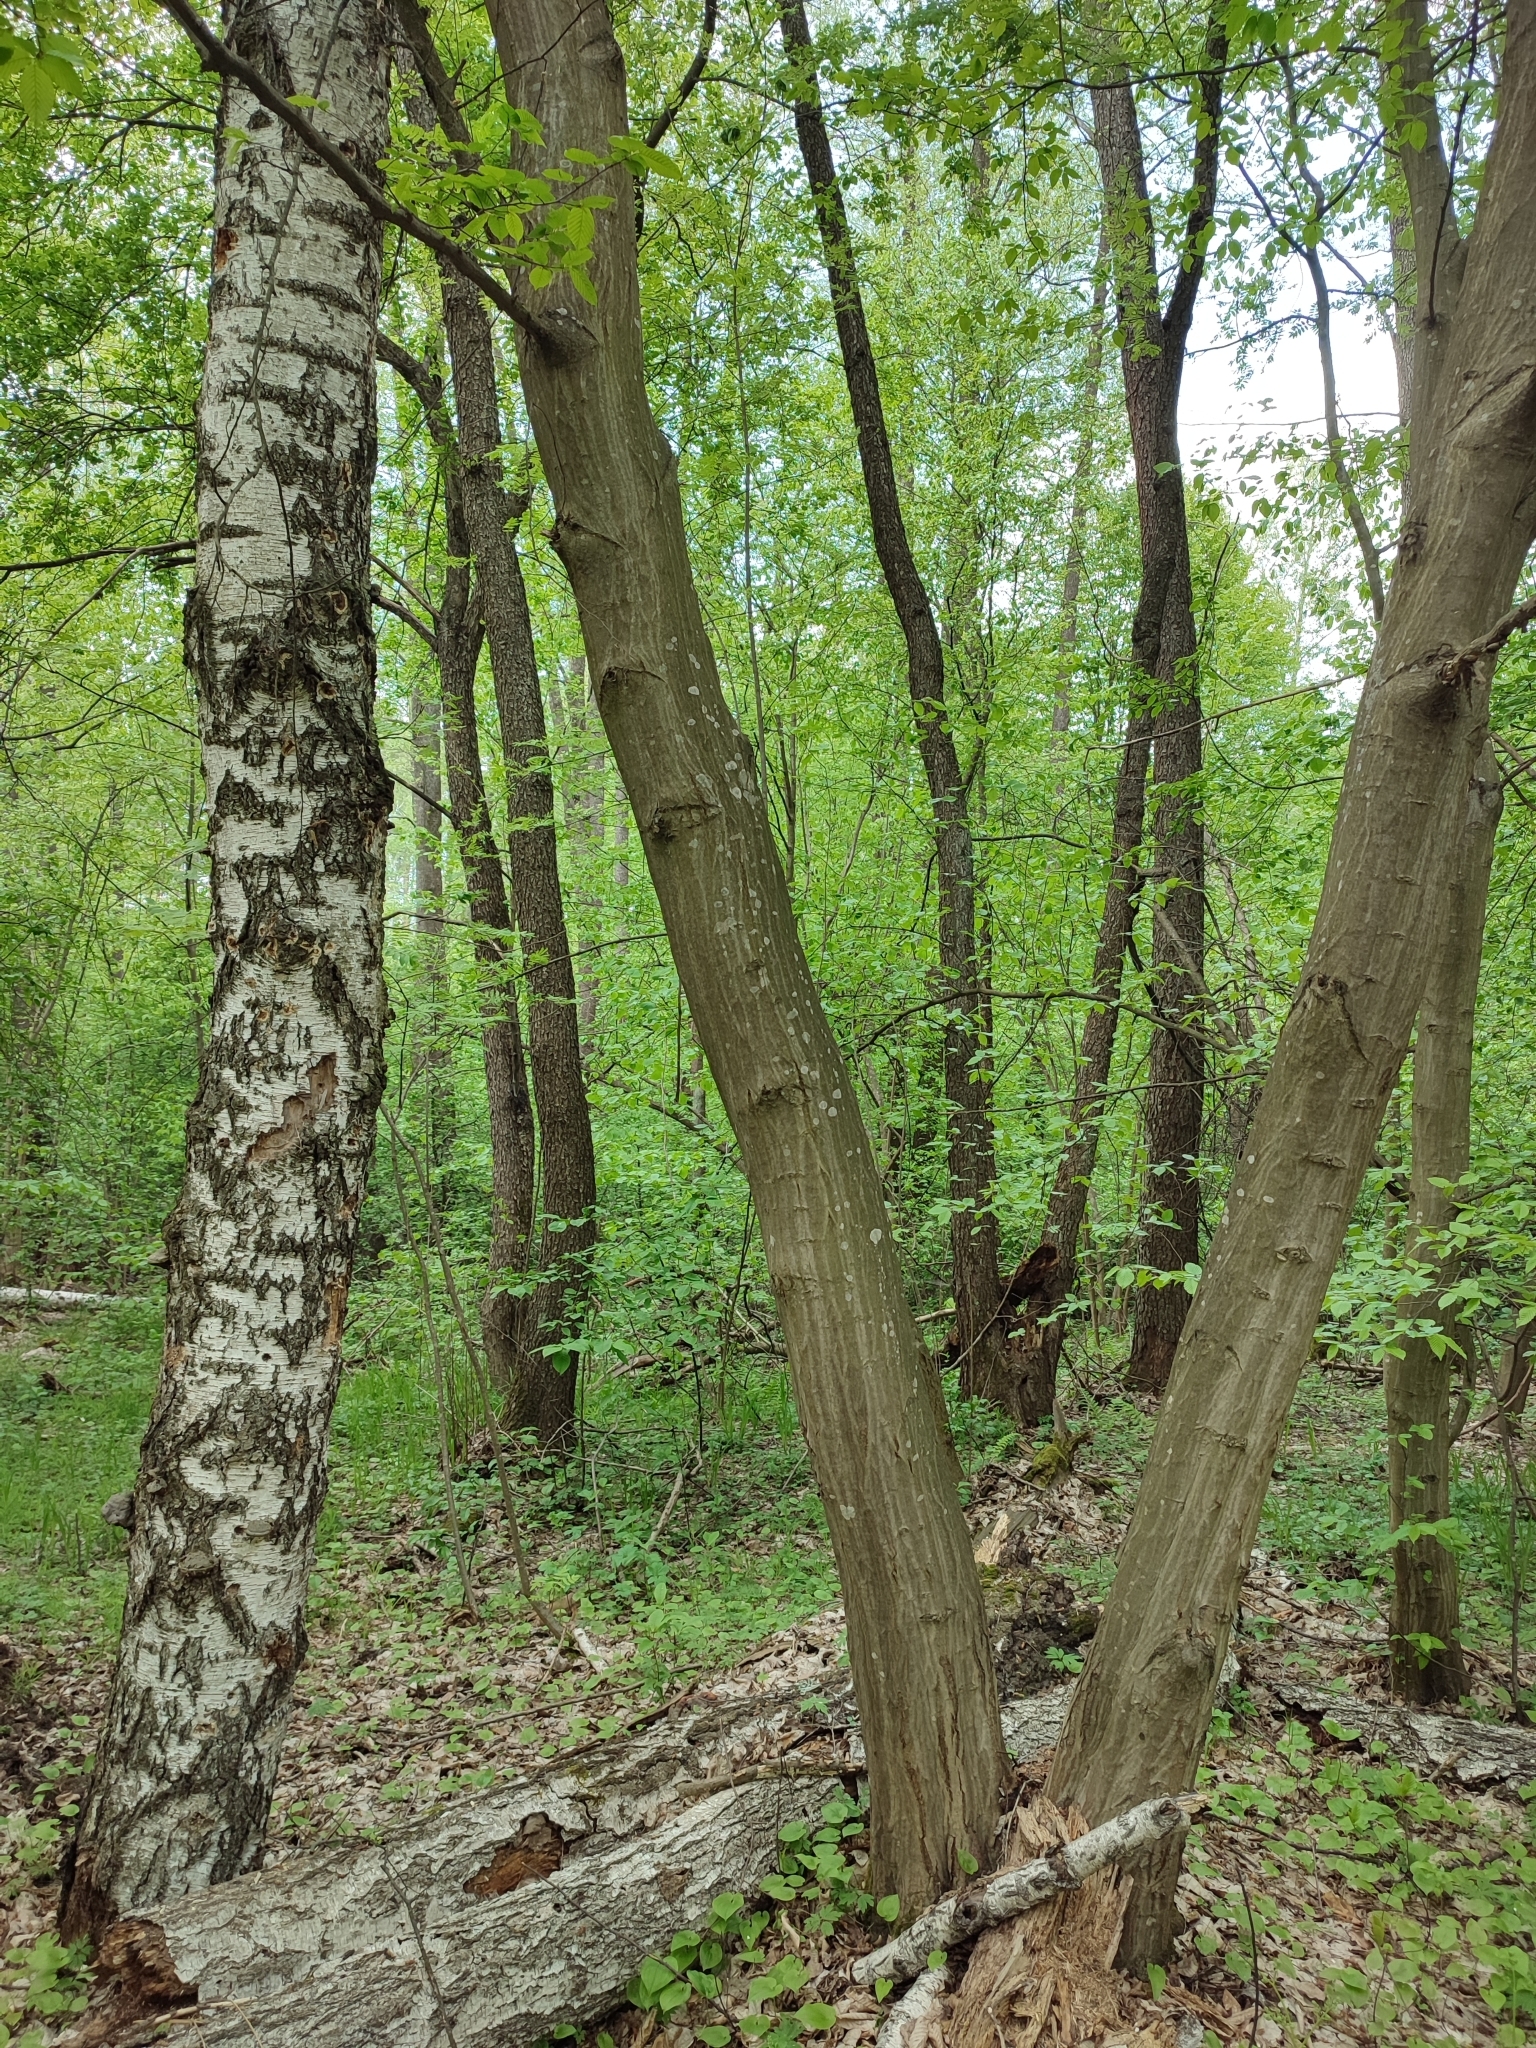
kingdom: Plantae
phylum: Tracheophyta
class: Magnoliopsida
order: Fagales
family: Betulaceae
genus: Carpinus
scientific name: Carpinus betulus
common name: Hornbeam
